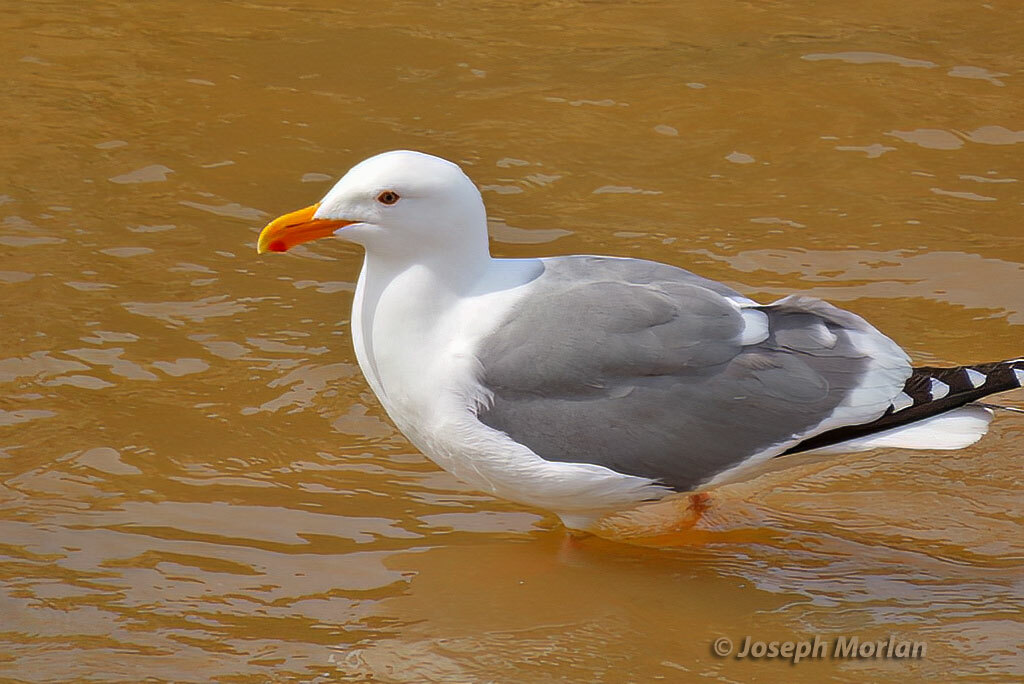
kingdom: Animalia
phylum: Chordata
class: Aves
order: Charadriiformes
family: Laridae
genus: Larus
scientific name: Larus occidentalis
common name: Western gull
